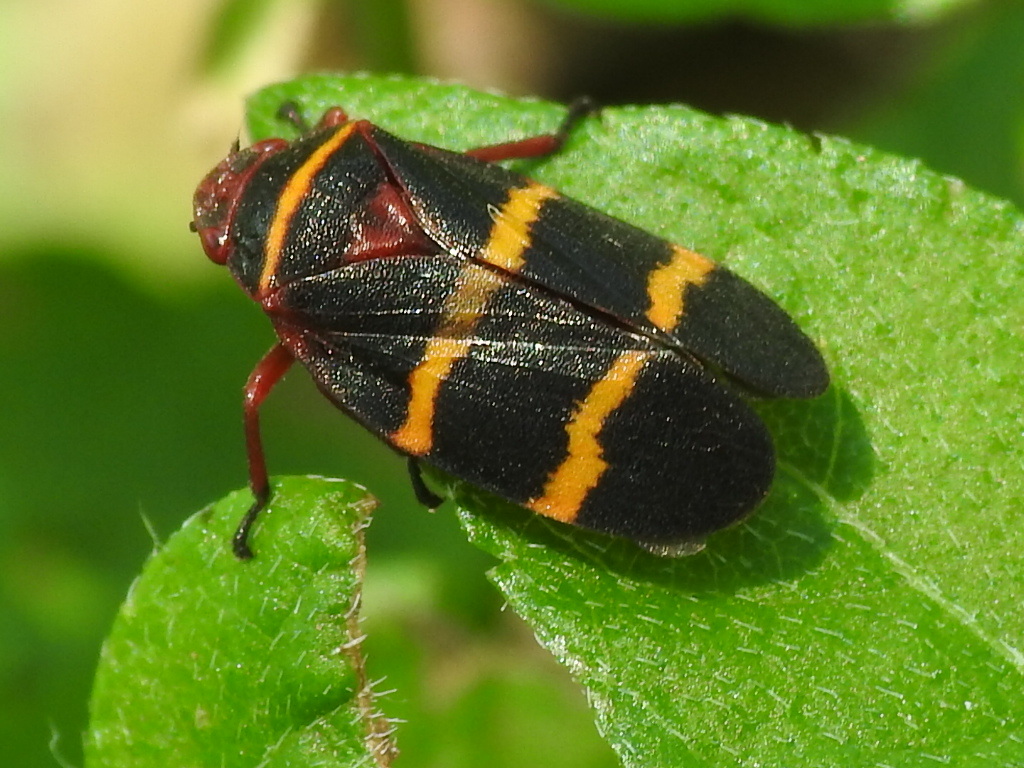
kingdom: Animalia
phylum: Arthropoda
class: Insecta
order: Hemiptera
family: Cercopidae
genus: Prosapia
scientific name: Prosapia bicincta
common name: Twolined spittlebug
